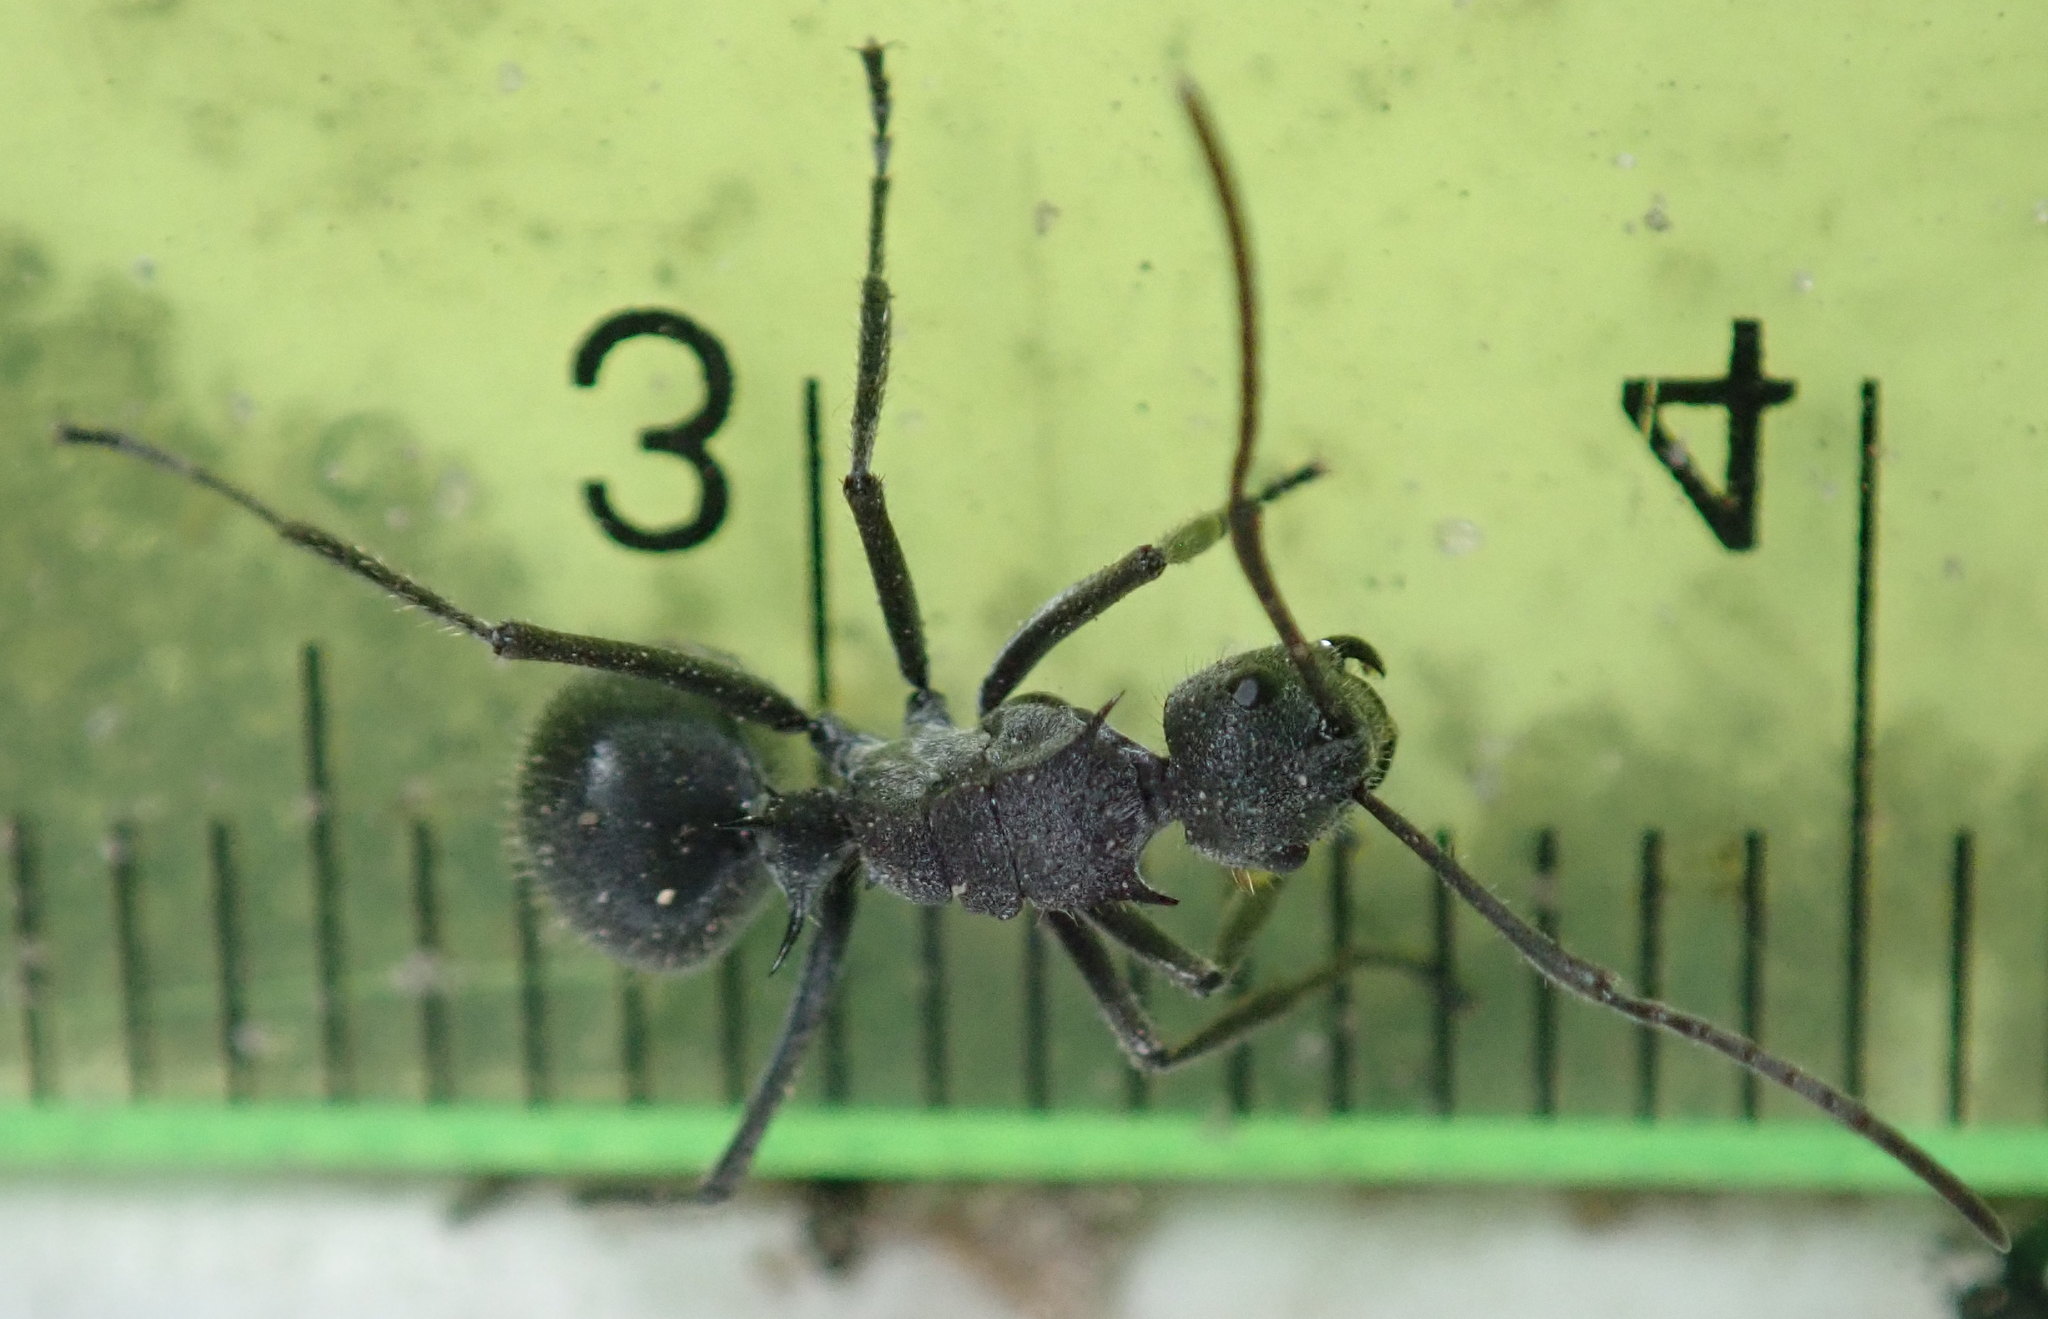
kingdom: Animalia
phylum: Arthropoda
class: Insecta
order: Hymenoptera
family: Formicidae
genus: Polyrhachis
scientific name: Polyrhachis schistacea
